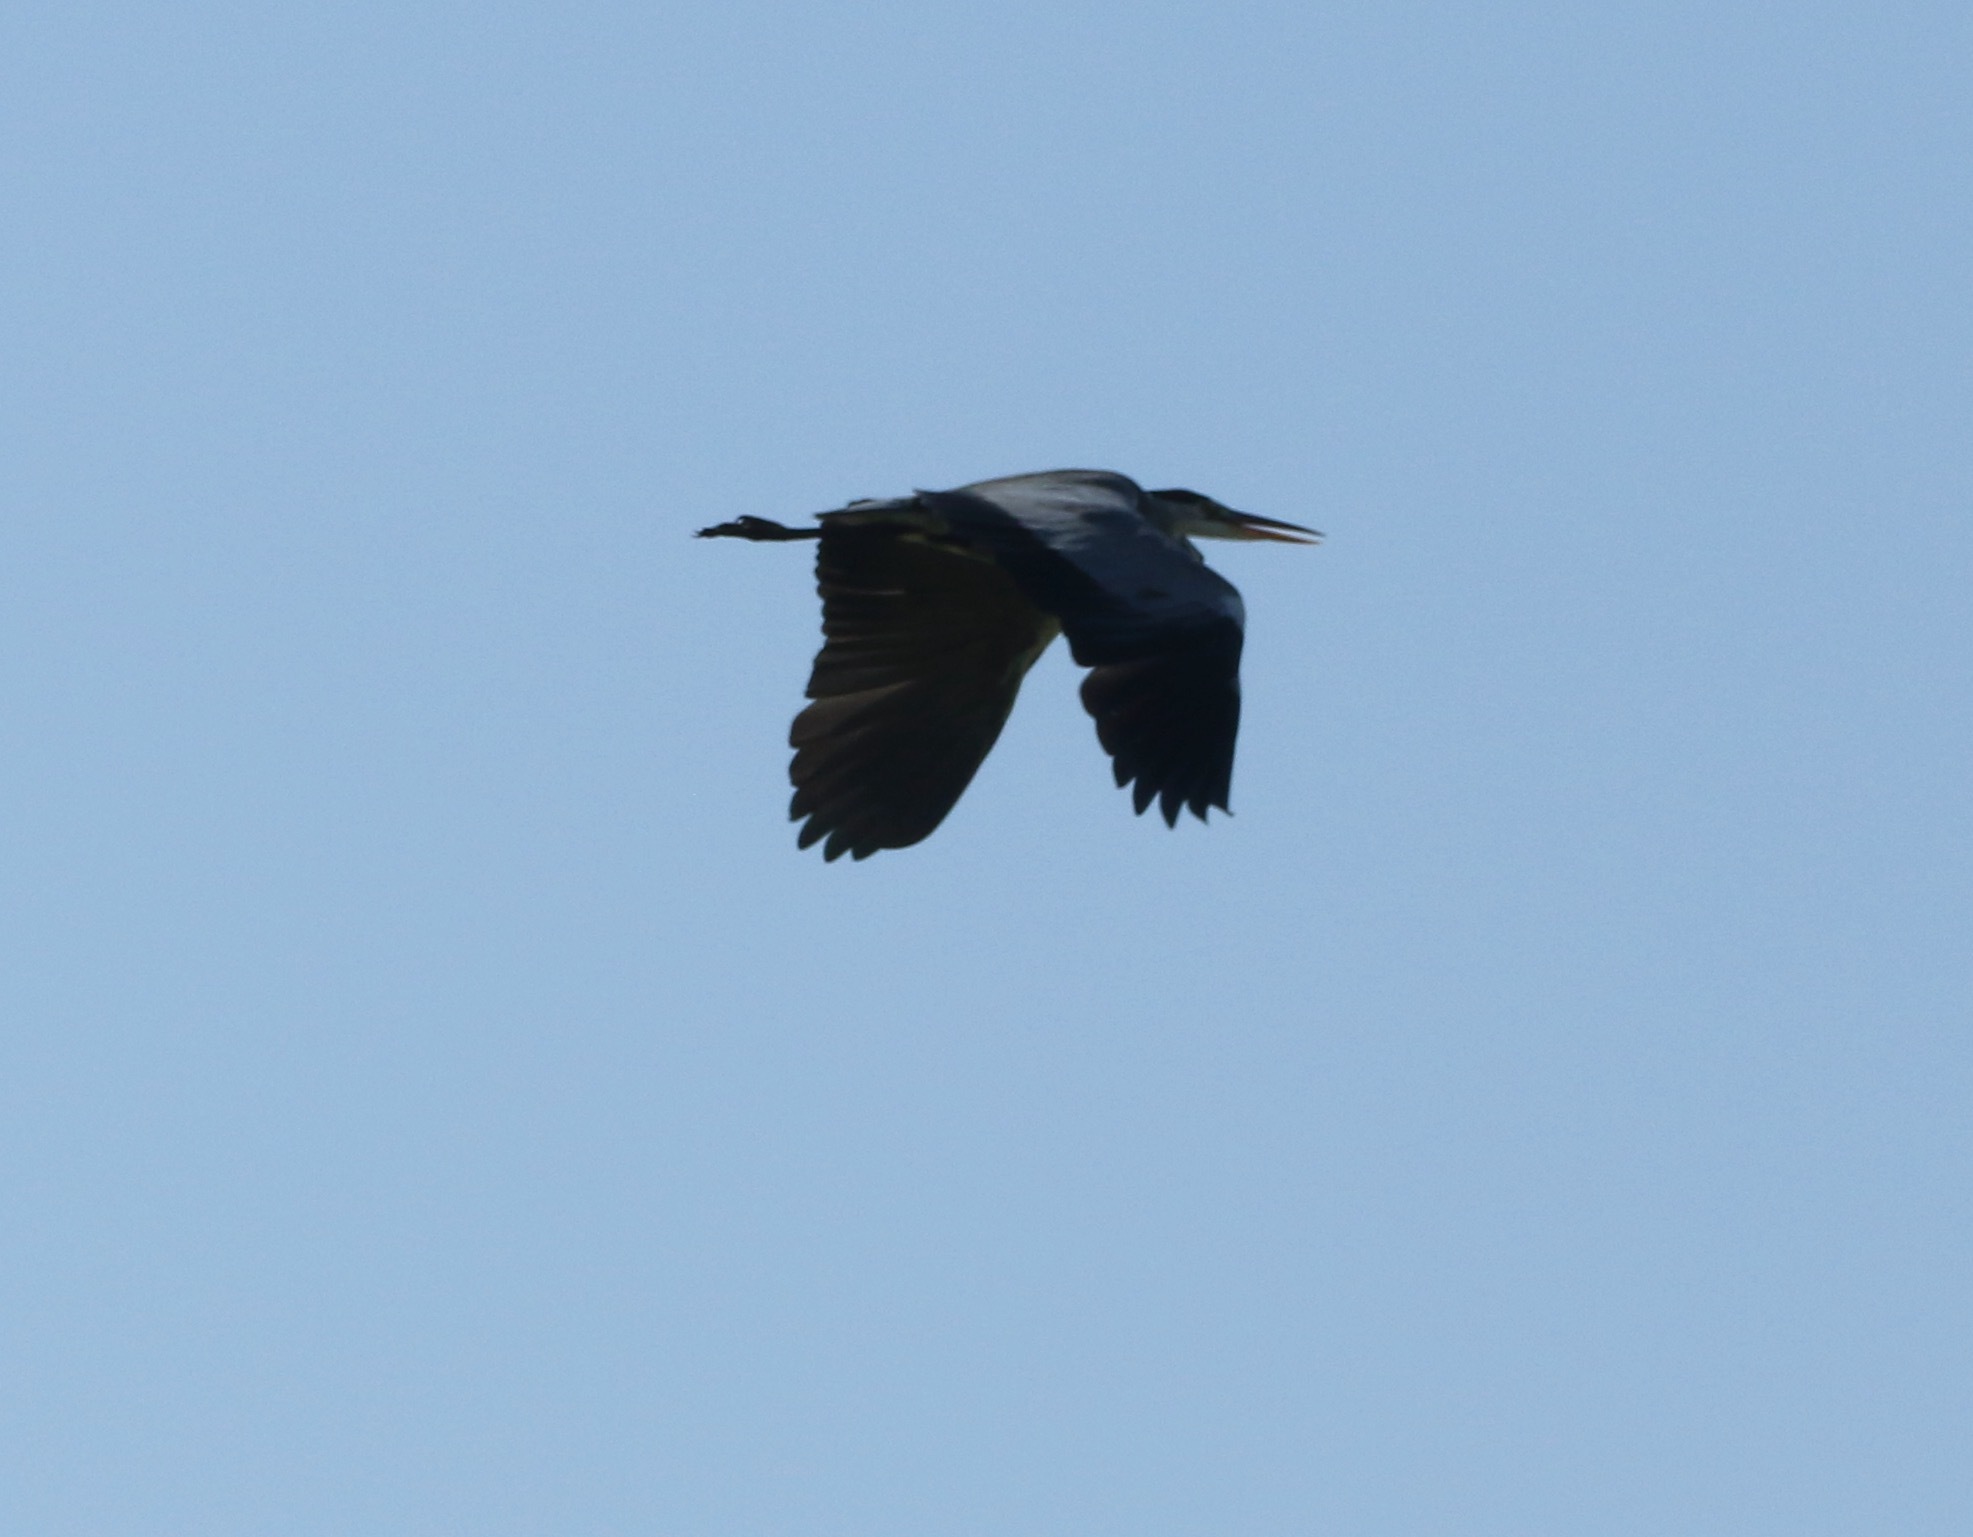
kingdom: Animalia
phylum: Chordata
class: Aves
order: Pelecaniformes
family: Ardeidae
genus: Ardea
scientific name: Ardea cinerea
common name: Grey heron
